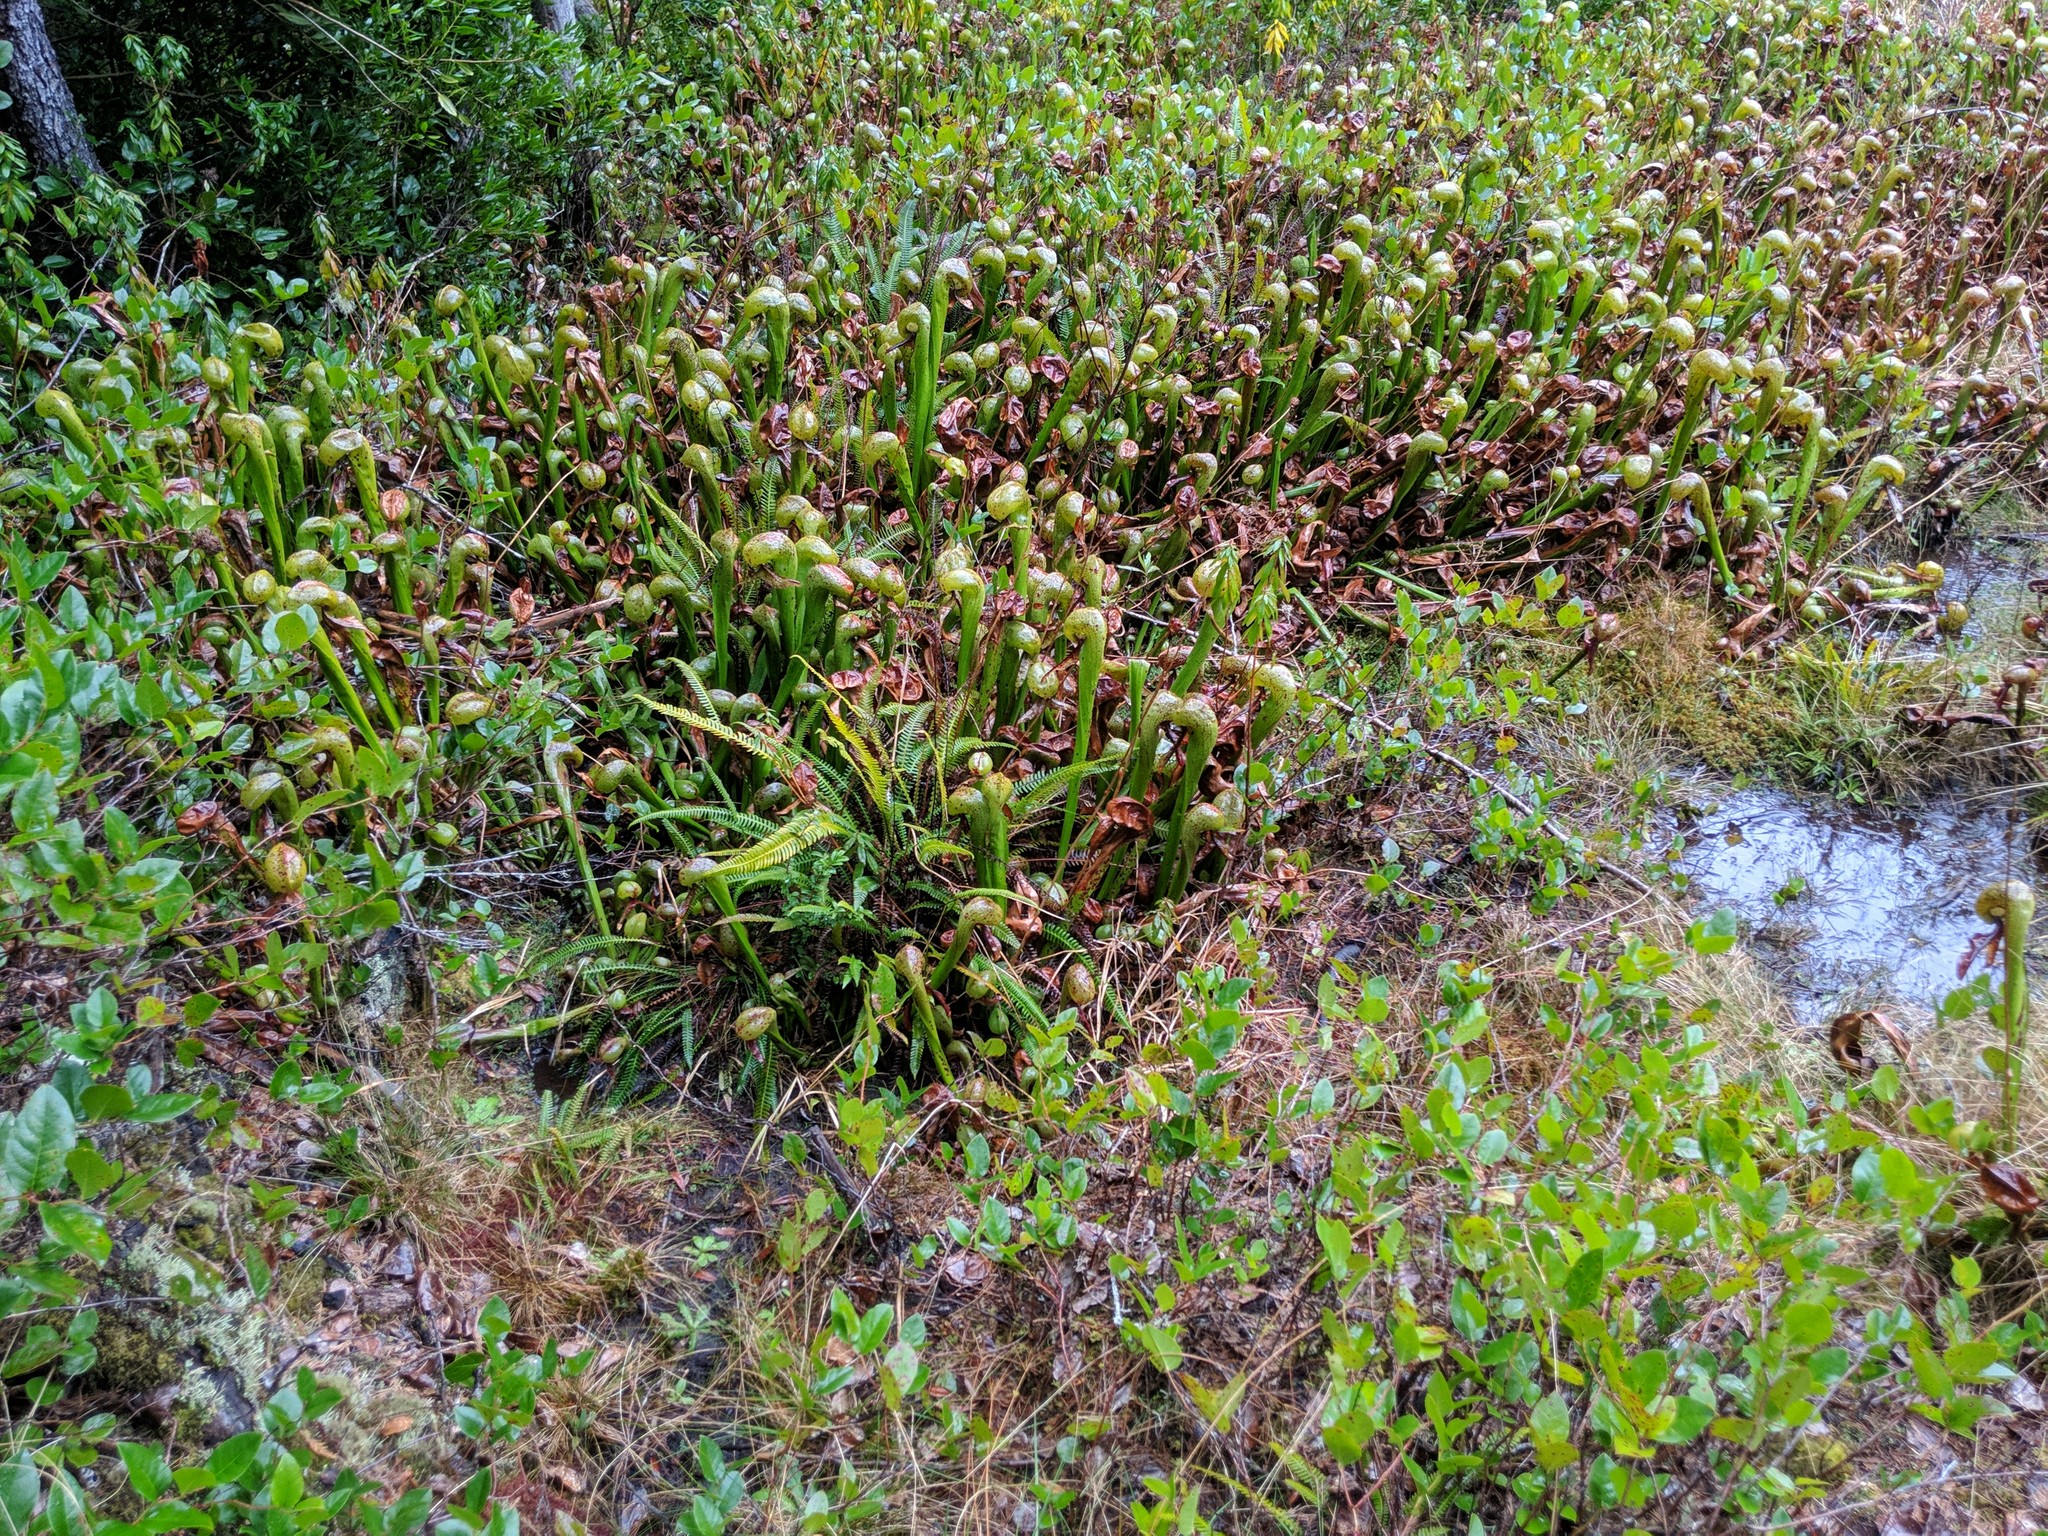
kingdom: Plantae
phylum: Tracheophyta
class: Magnoliopsida
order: Ericales
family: Sarraceniaceae
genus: Darlingtonia
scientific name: Darlingtonia californica
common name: California pitcher plant
